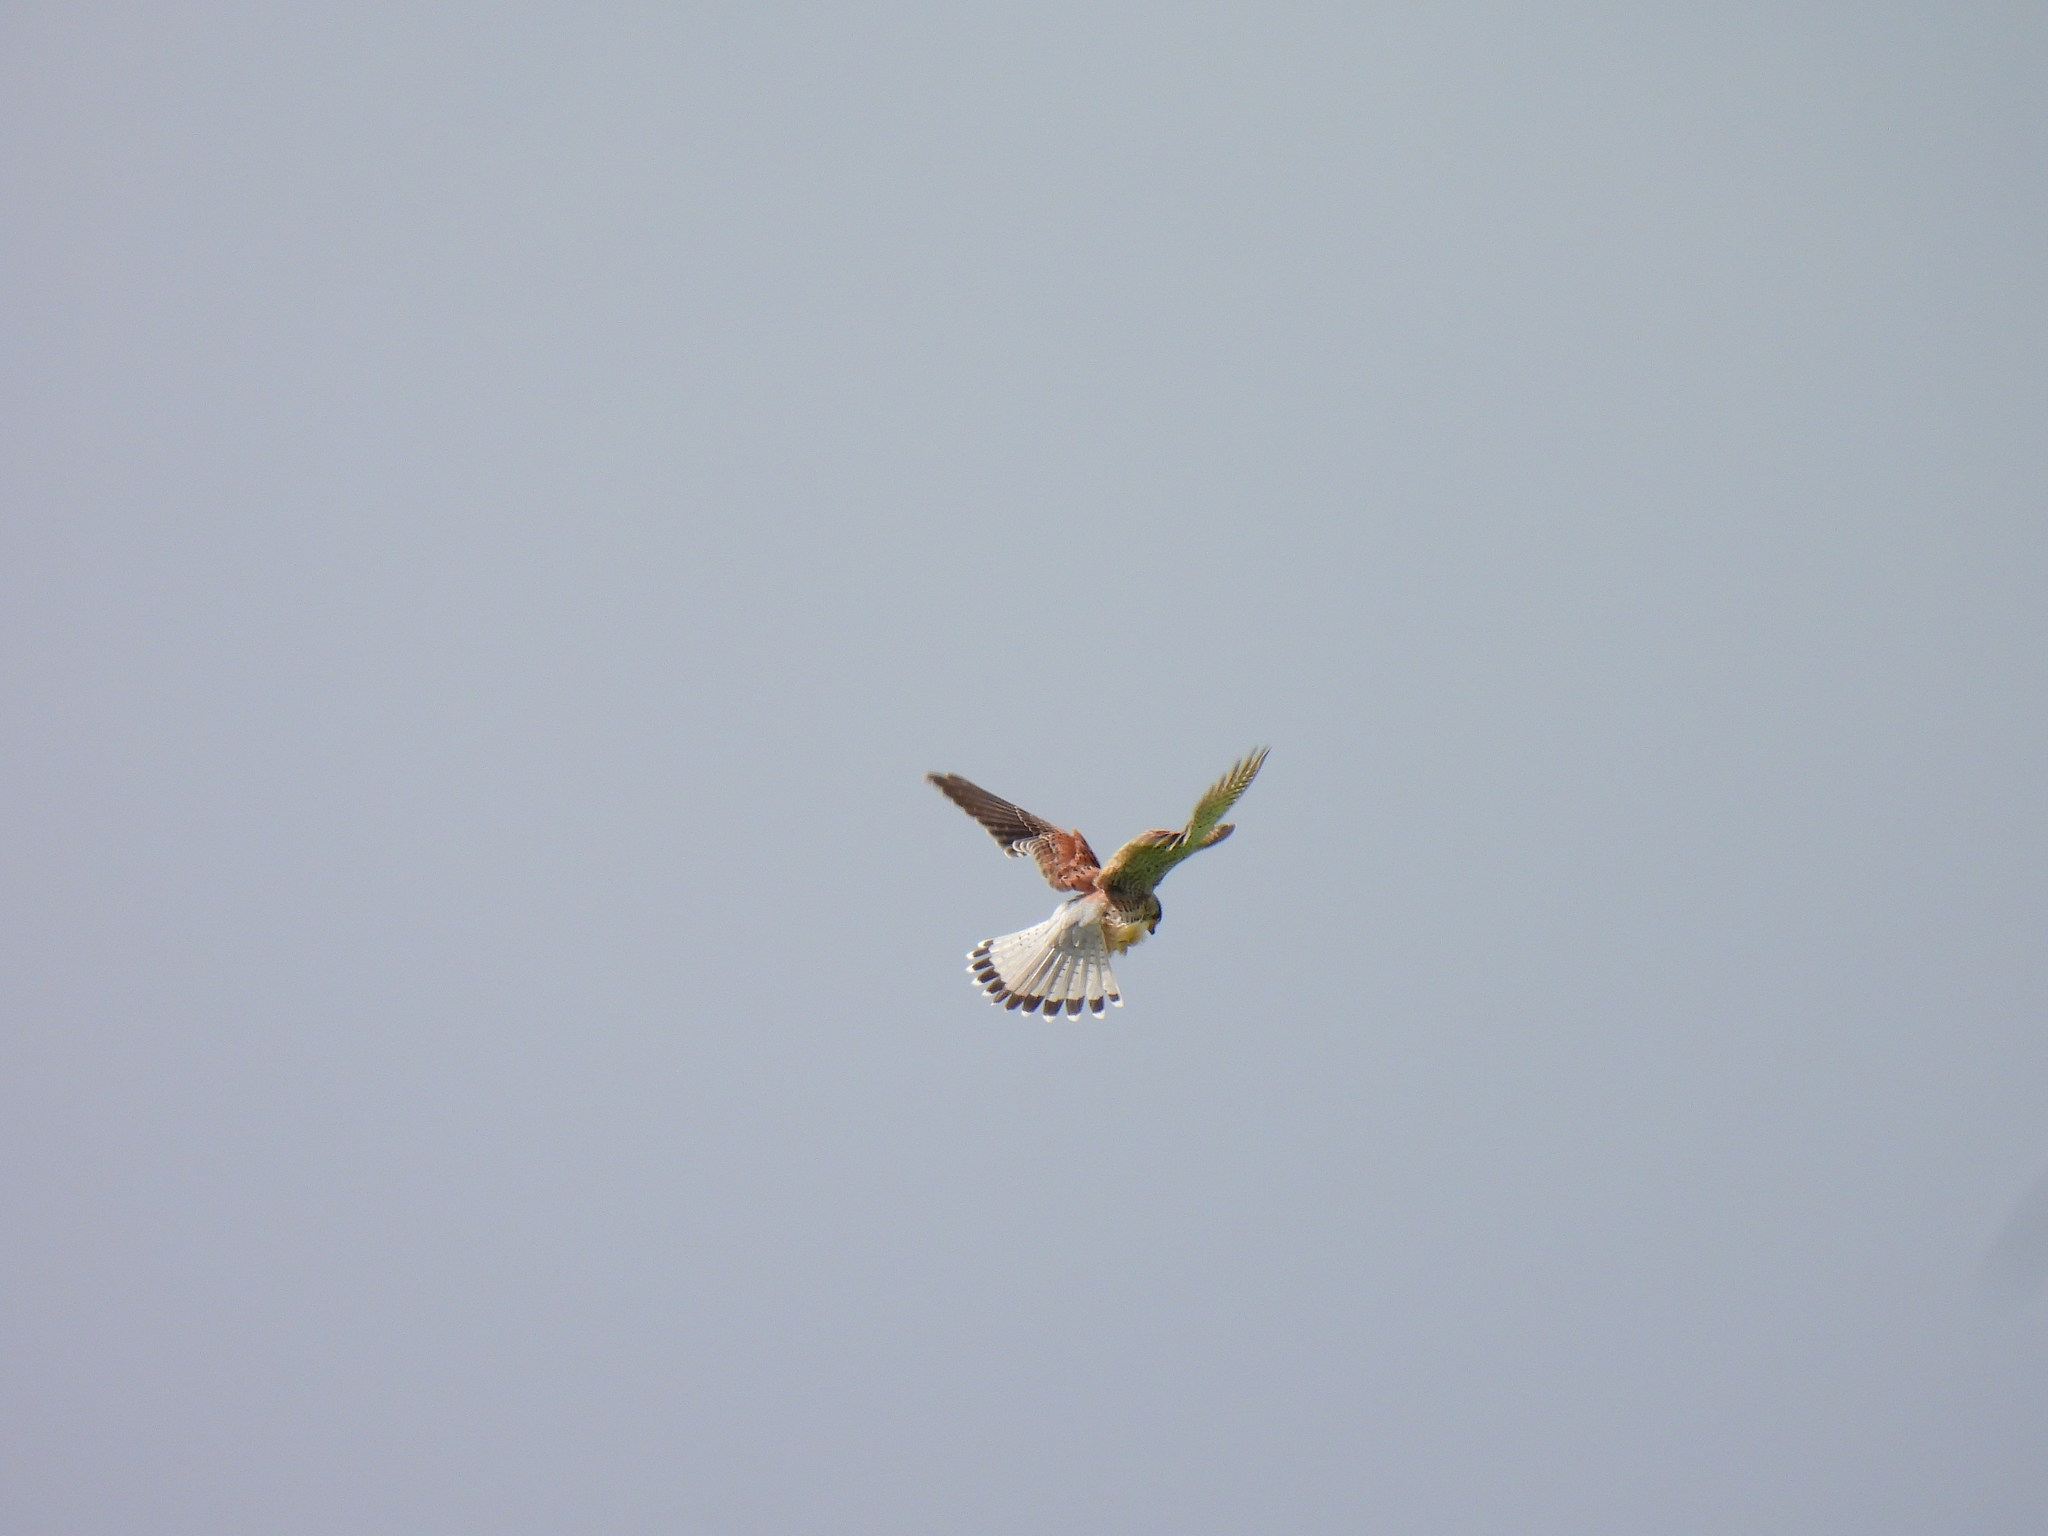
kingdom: Animalia
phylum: Chordata
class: Aves
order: Falconiformes
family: Falconidae
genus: Falco
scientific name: Falco tinnunculus
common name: Common kestrel
